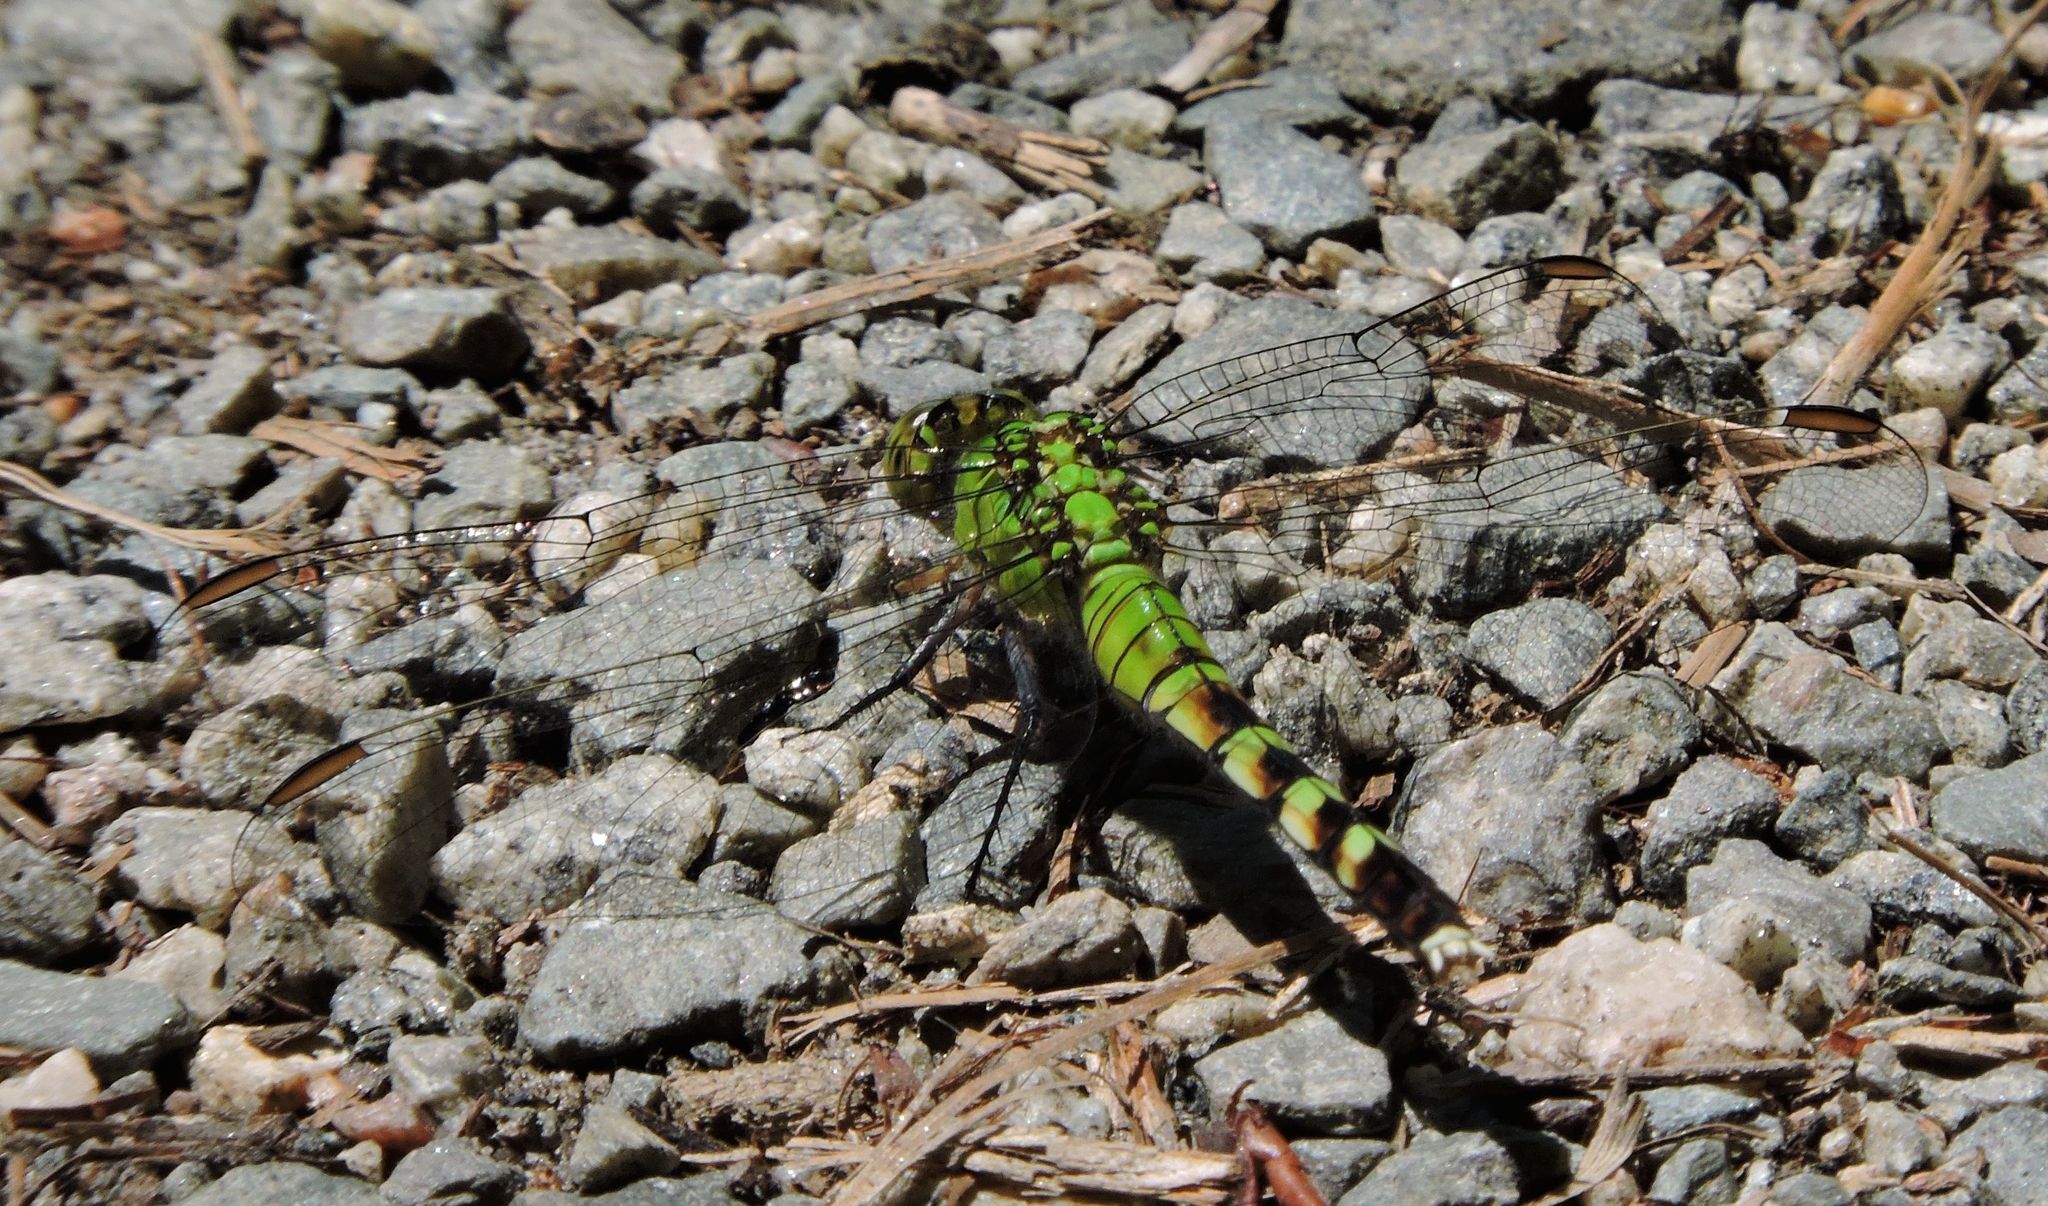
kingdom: Animalia
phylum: Arthropoda
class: Insecta
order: Odonata
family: Libellulidae
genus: Erythemis
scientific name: Erythemis simplicicollis
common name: Eastern pondhawk
